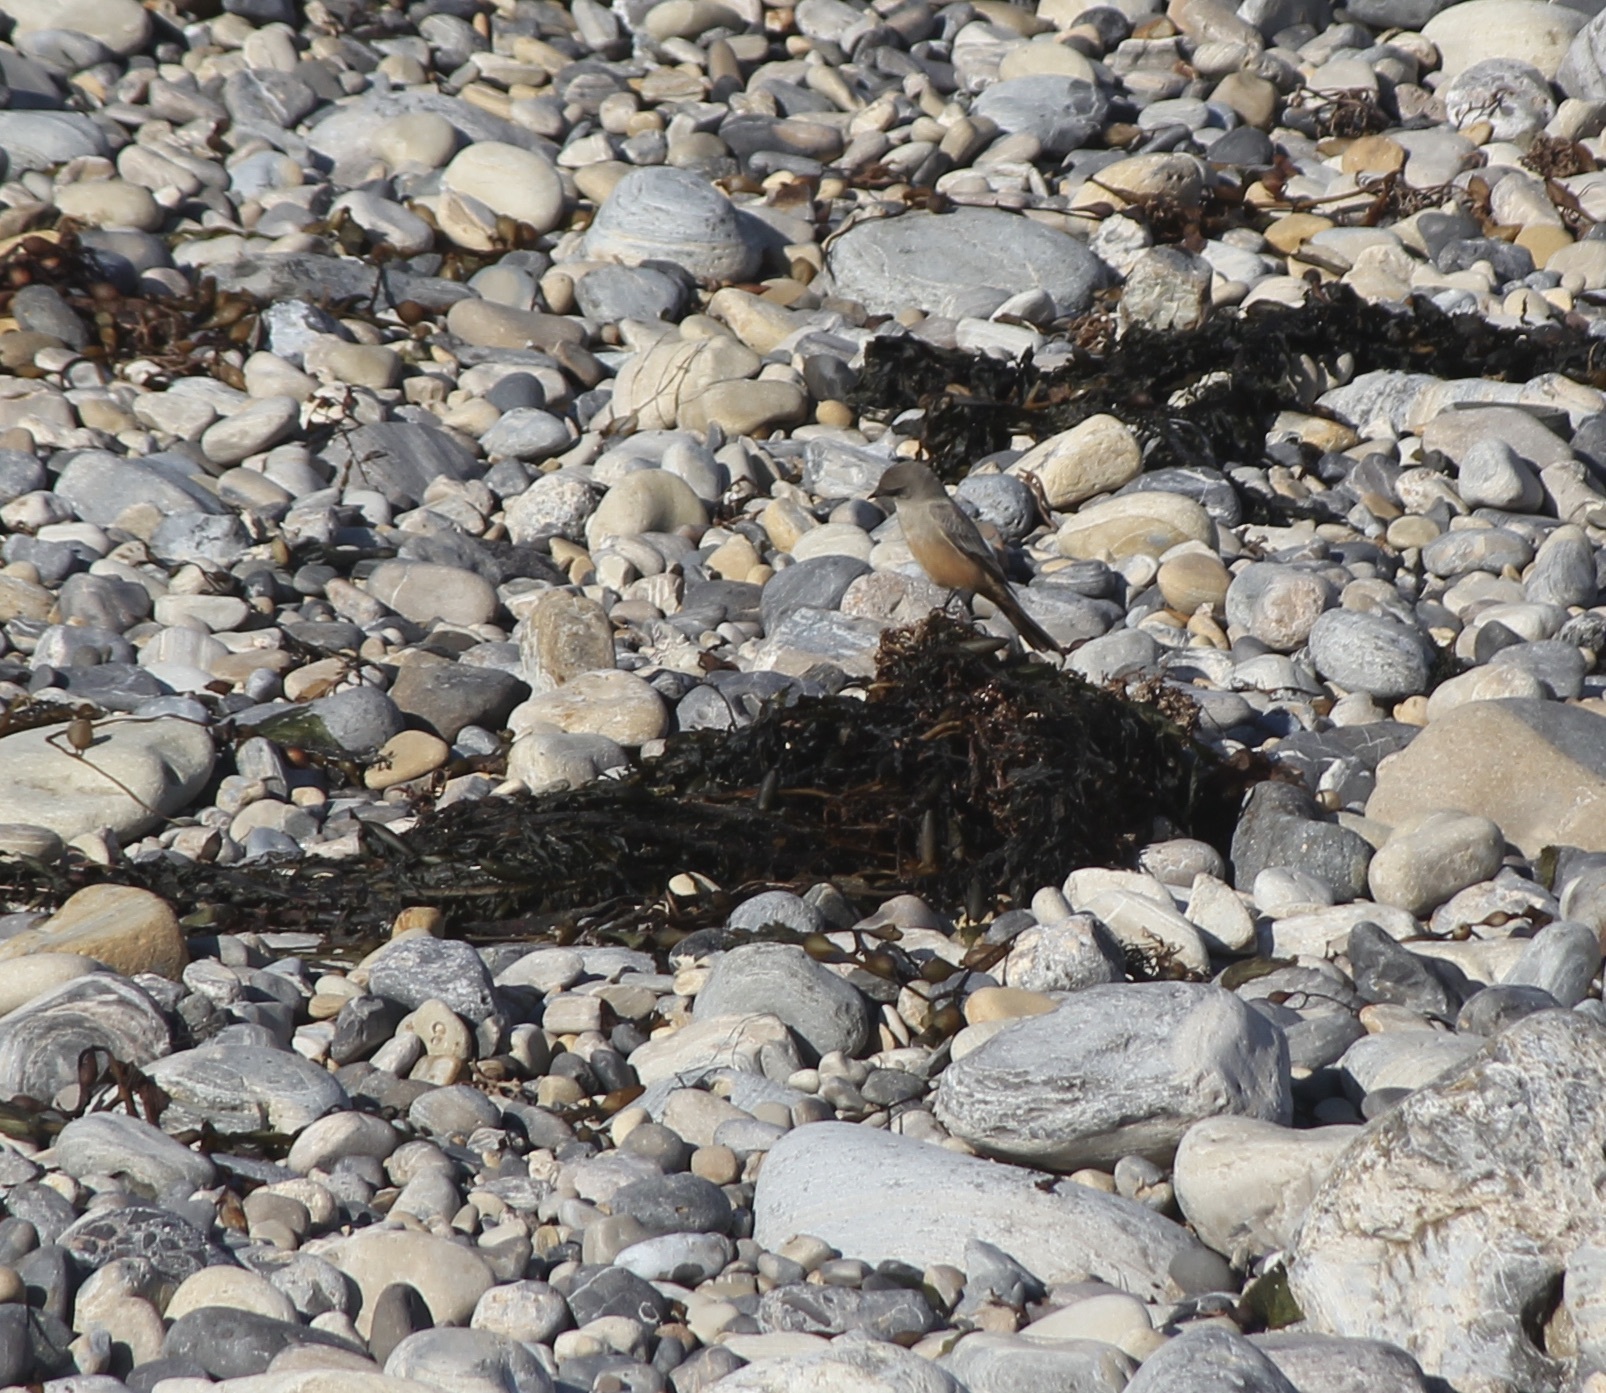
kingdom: Animalia
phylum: Chordata
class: Aves
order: Passeriformes
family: Tyrannidae
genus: Sayornis
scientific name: Sayornis saya
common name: Say's phoebe
